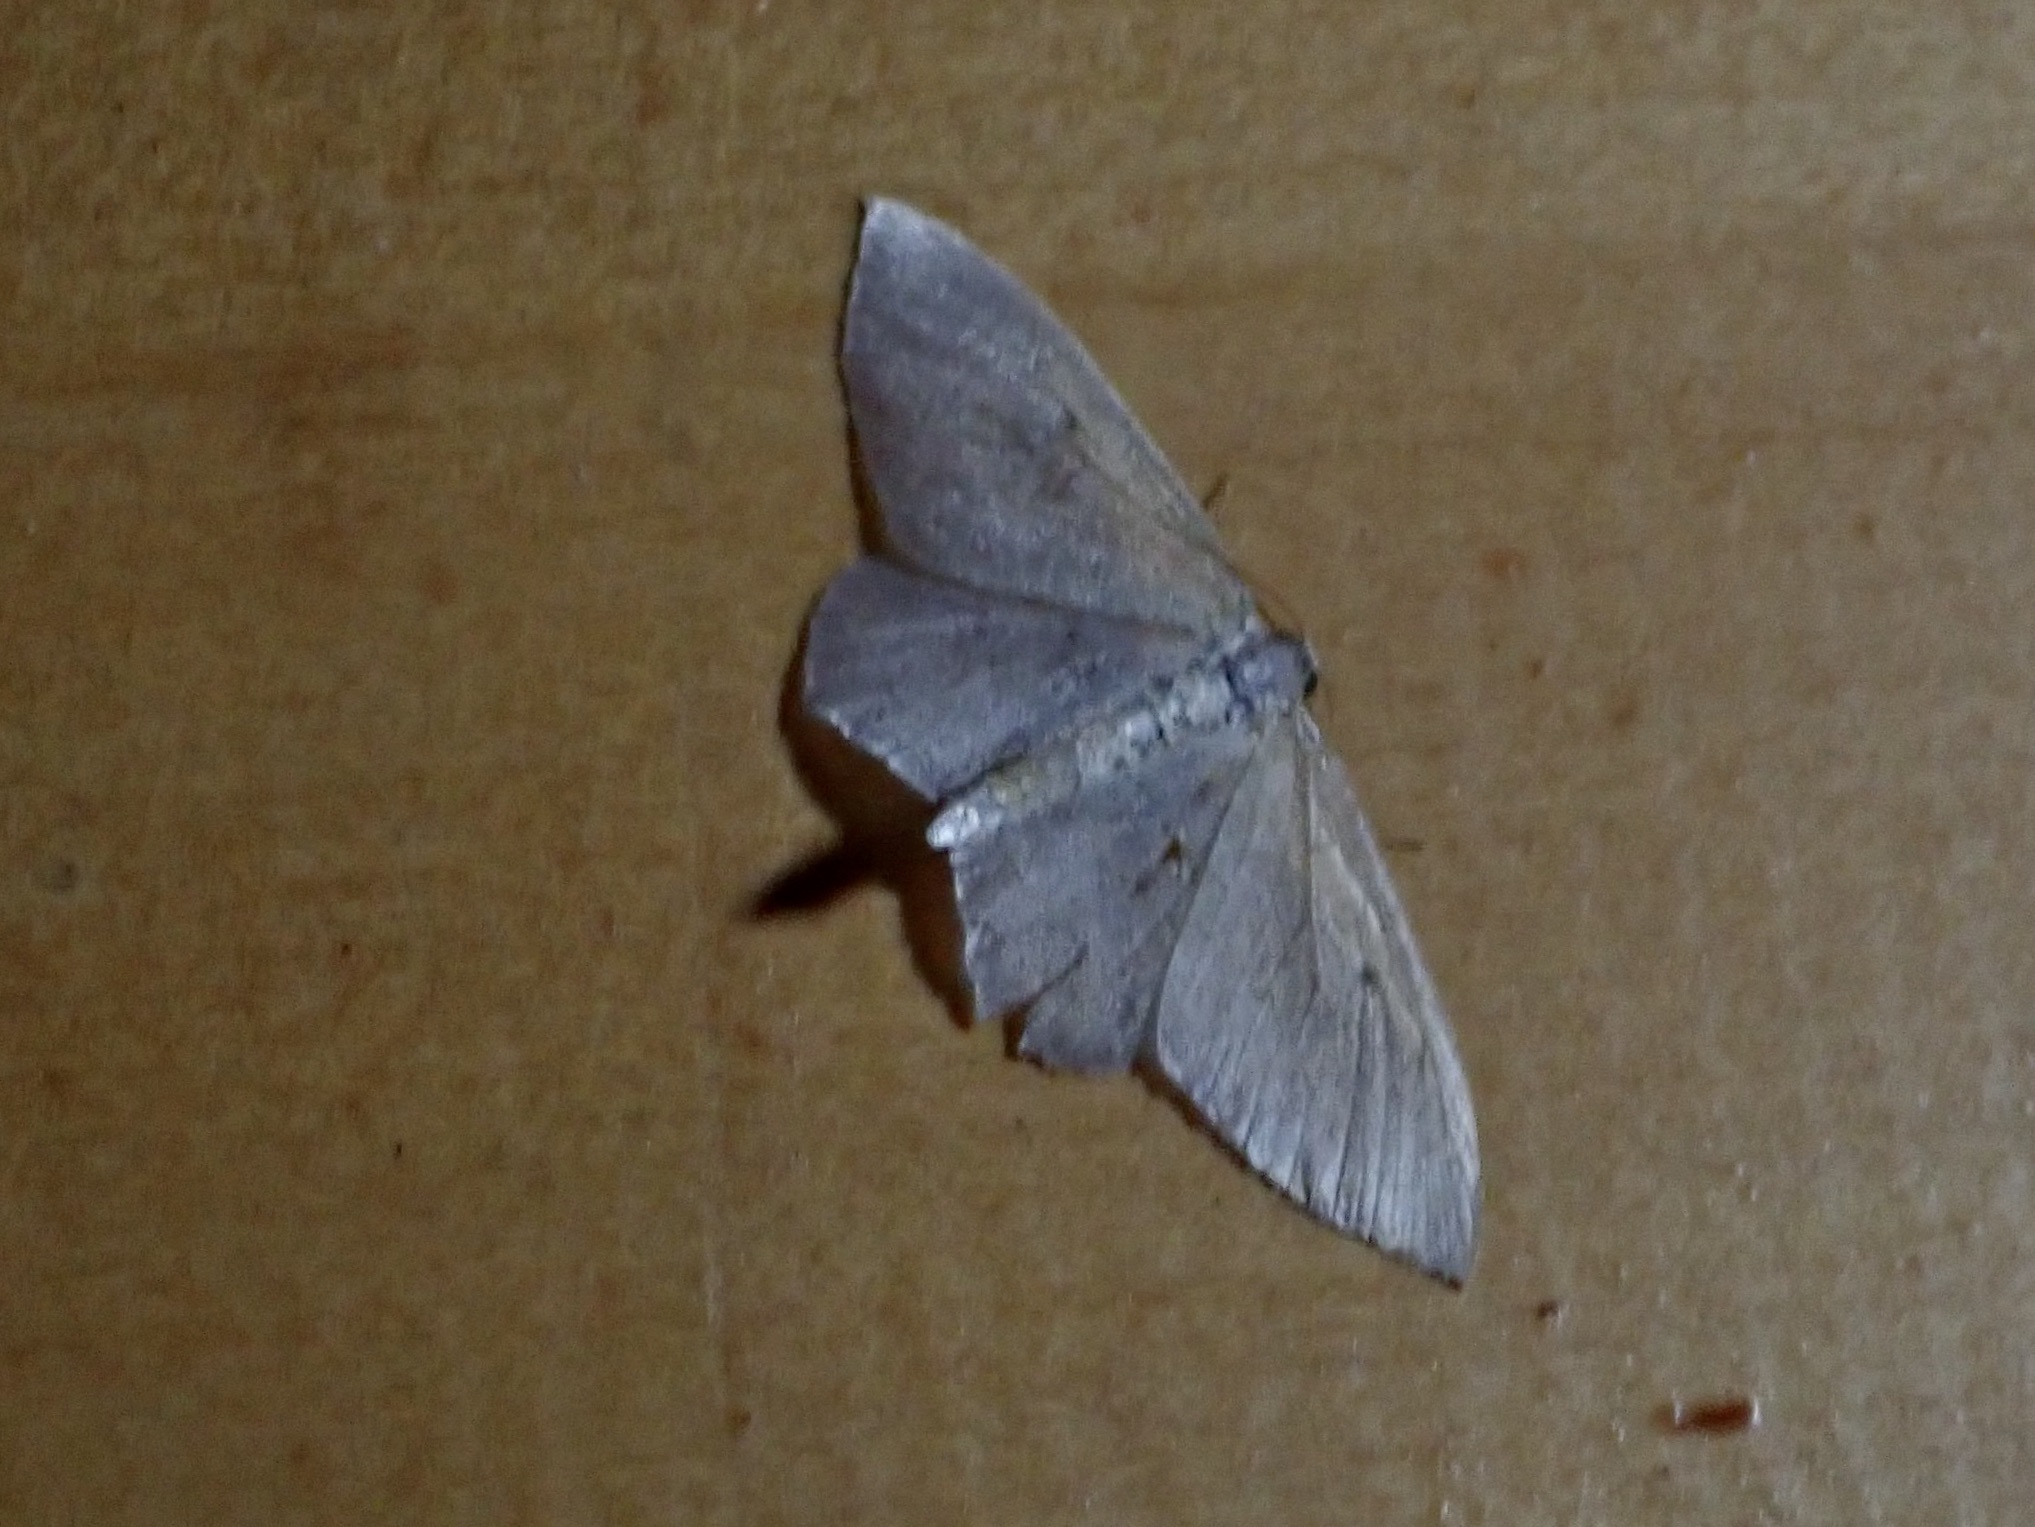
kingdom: Animalia
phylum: Arthropoda
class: Insecta
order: Lepidoptera
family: Geometridae
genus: Poecilasthena
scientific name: Poecilasthena pulchraria
